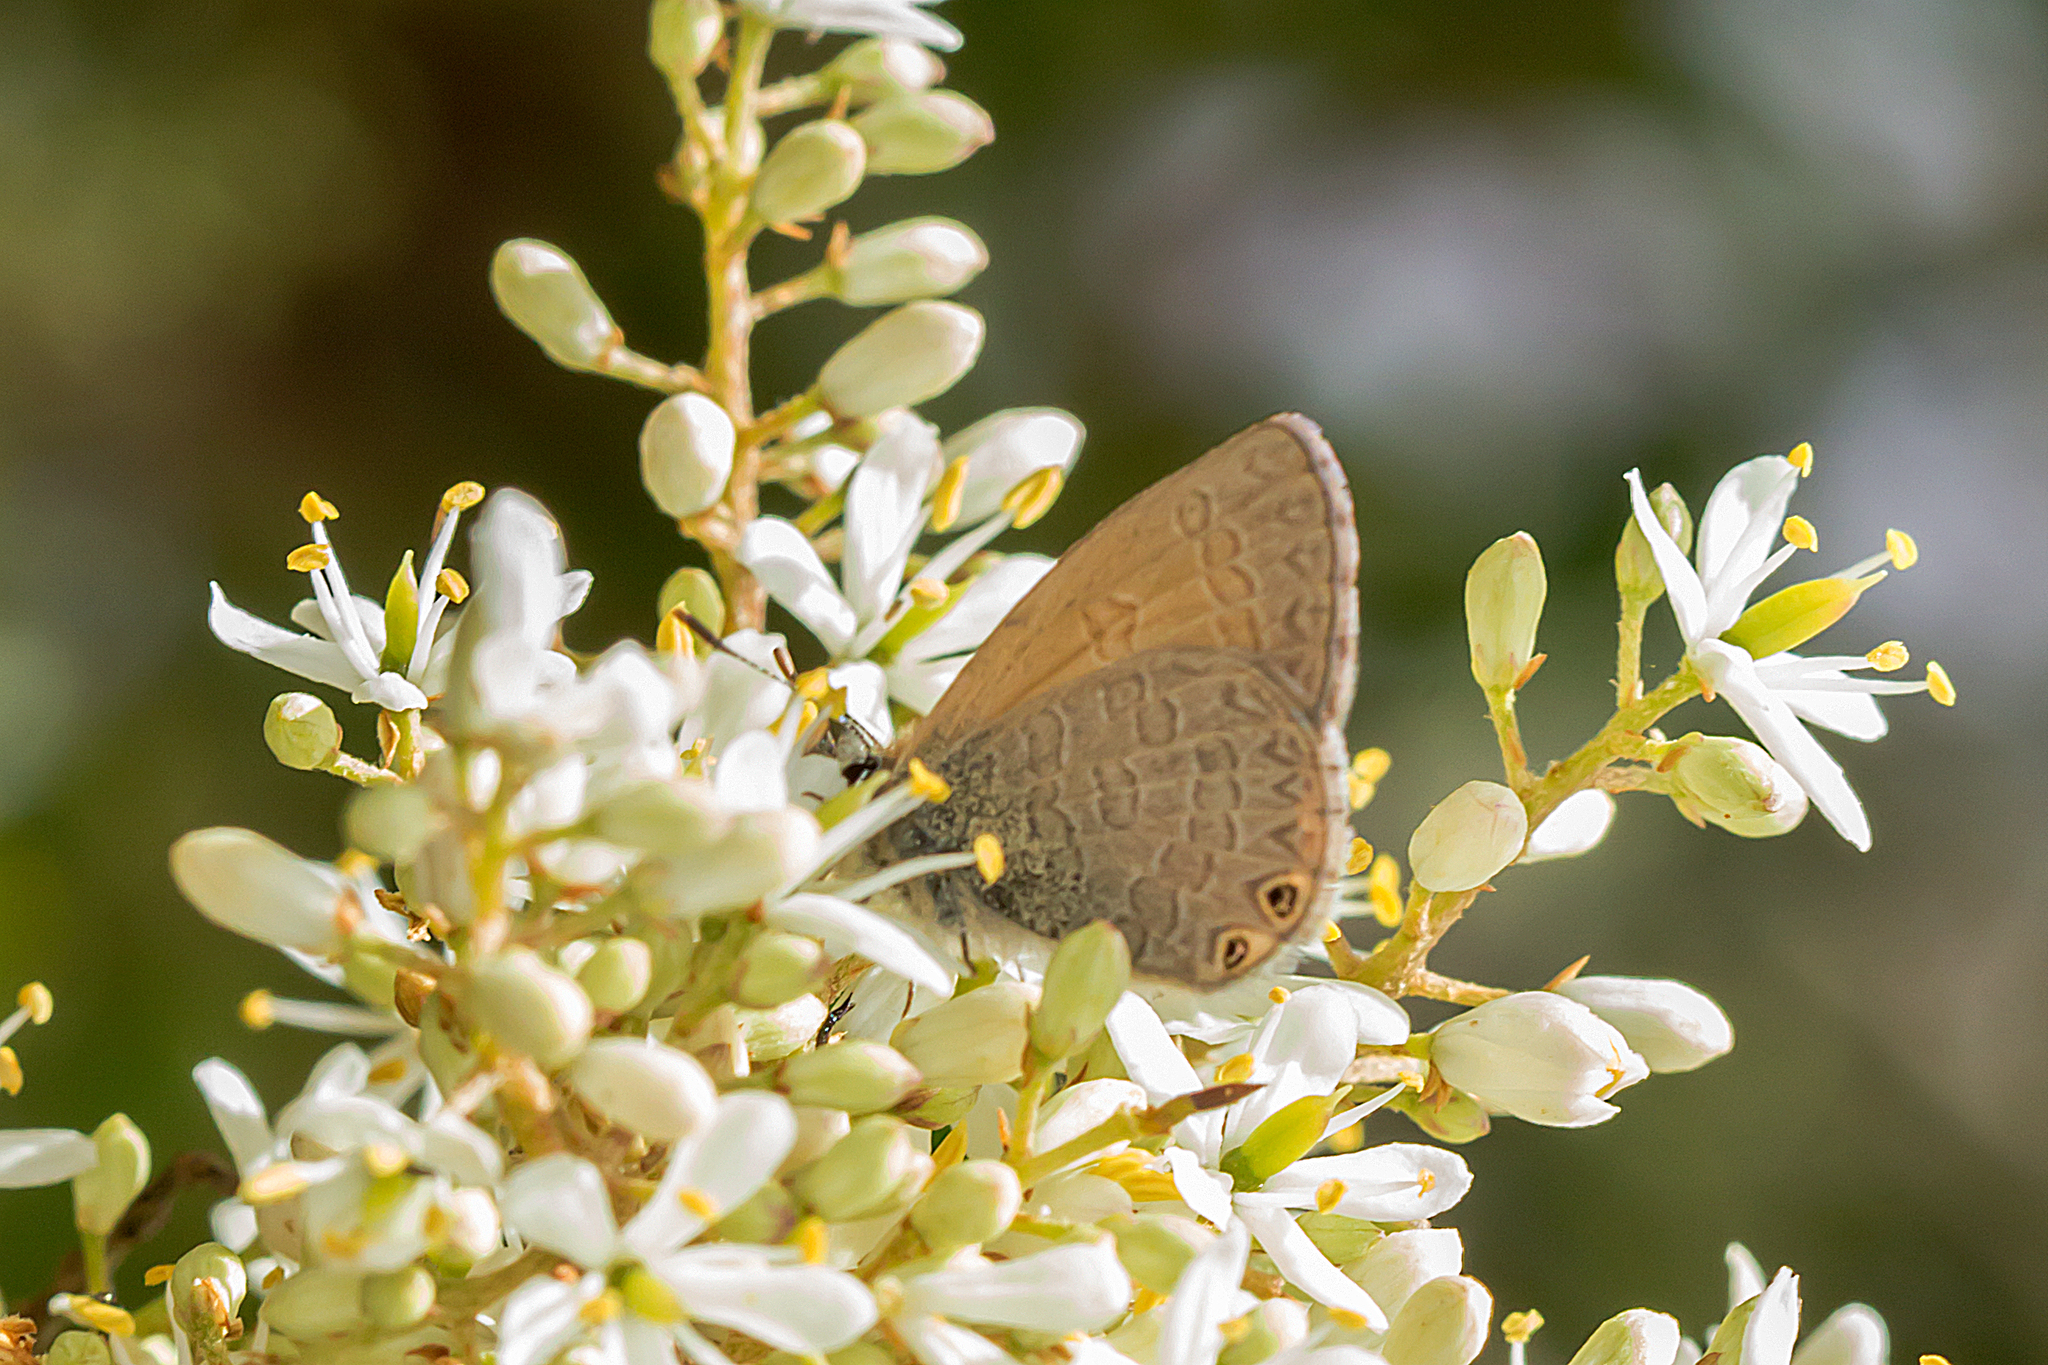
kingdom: Animalia
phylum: Arthropoda
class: Insecta
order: Lepidoptera
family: Lycaenidae
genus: Nacaduba
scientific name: Nacaduba biocellata
